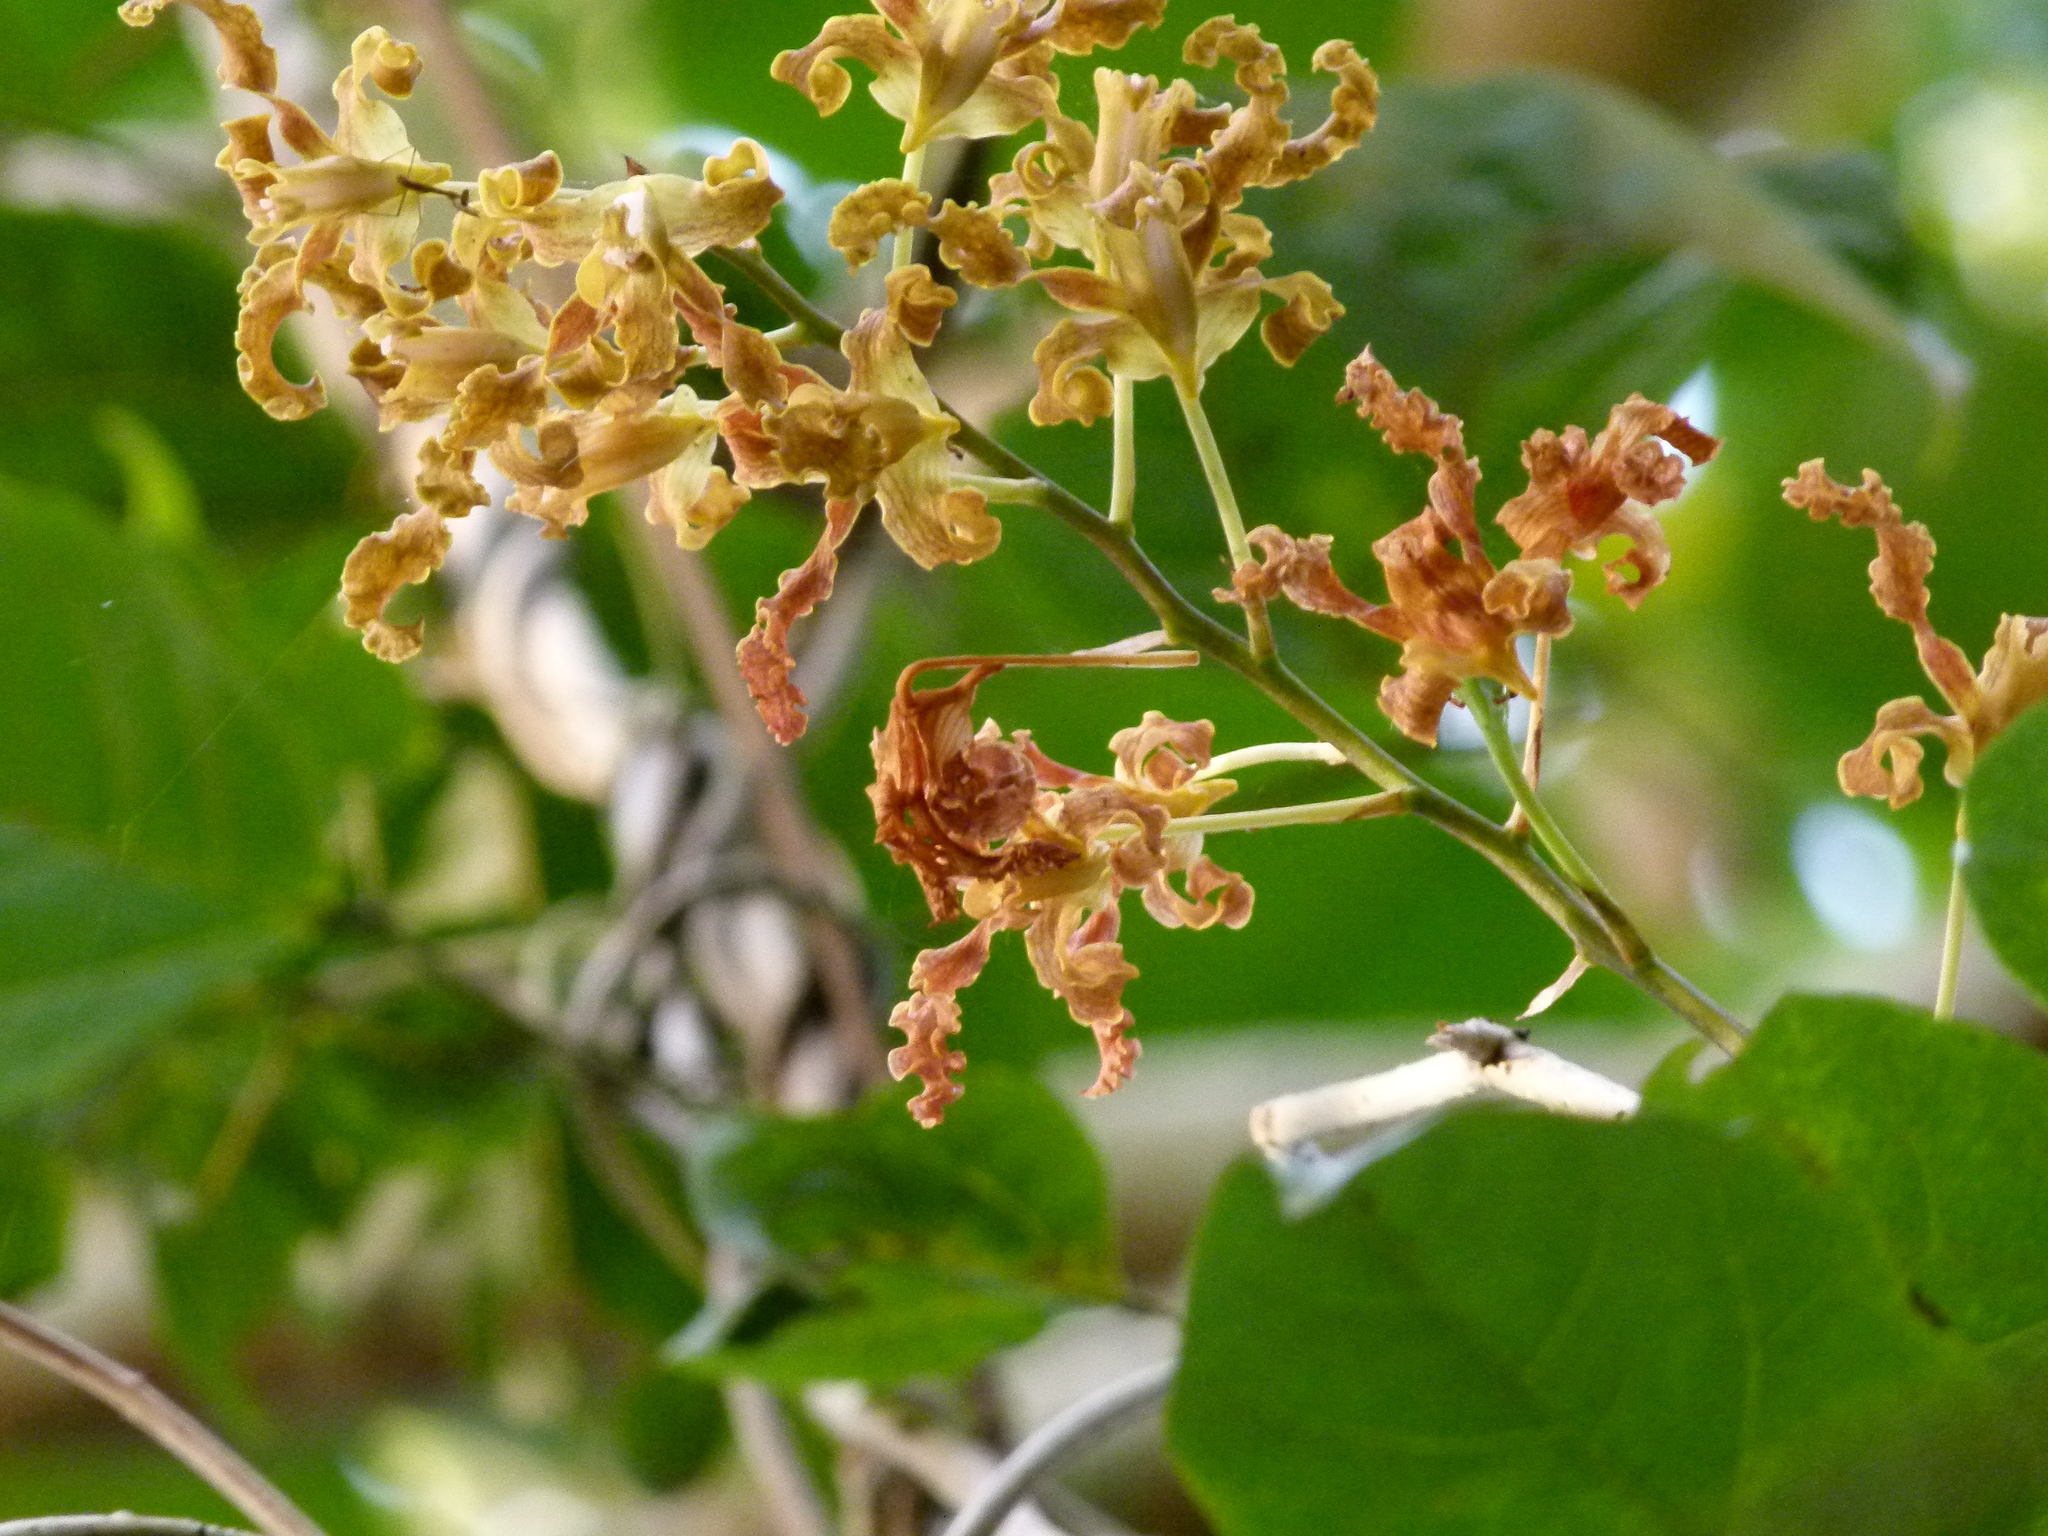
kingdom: Plantae
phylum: Tracheophyta
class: Liliopsida
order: Asparagales
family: Orchidaceae
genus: Dendrobium
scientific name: Dendrobium discolor
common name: Golden antler orchid
